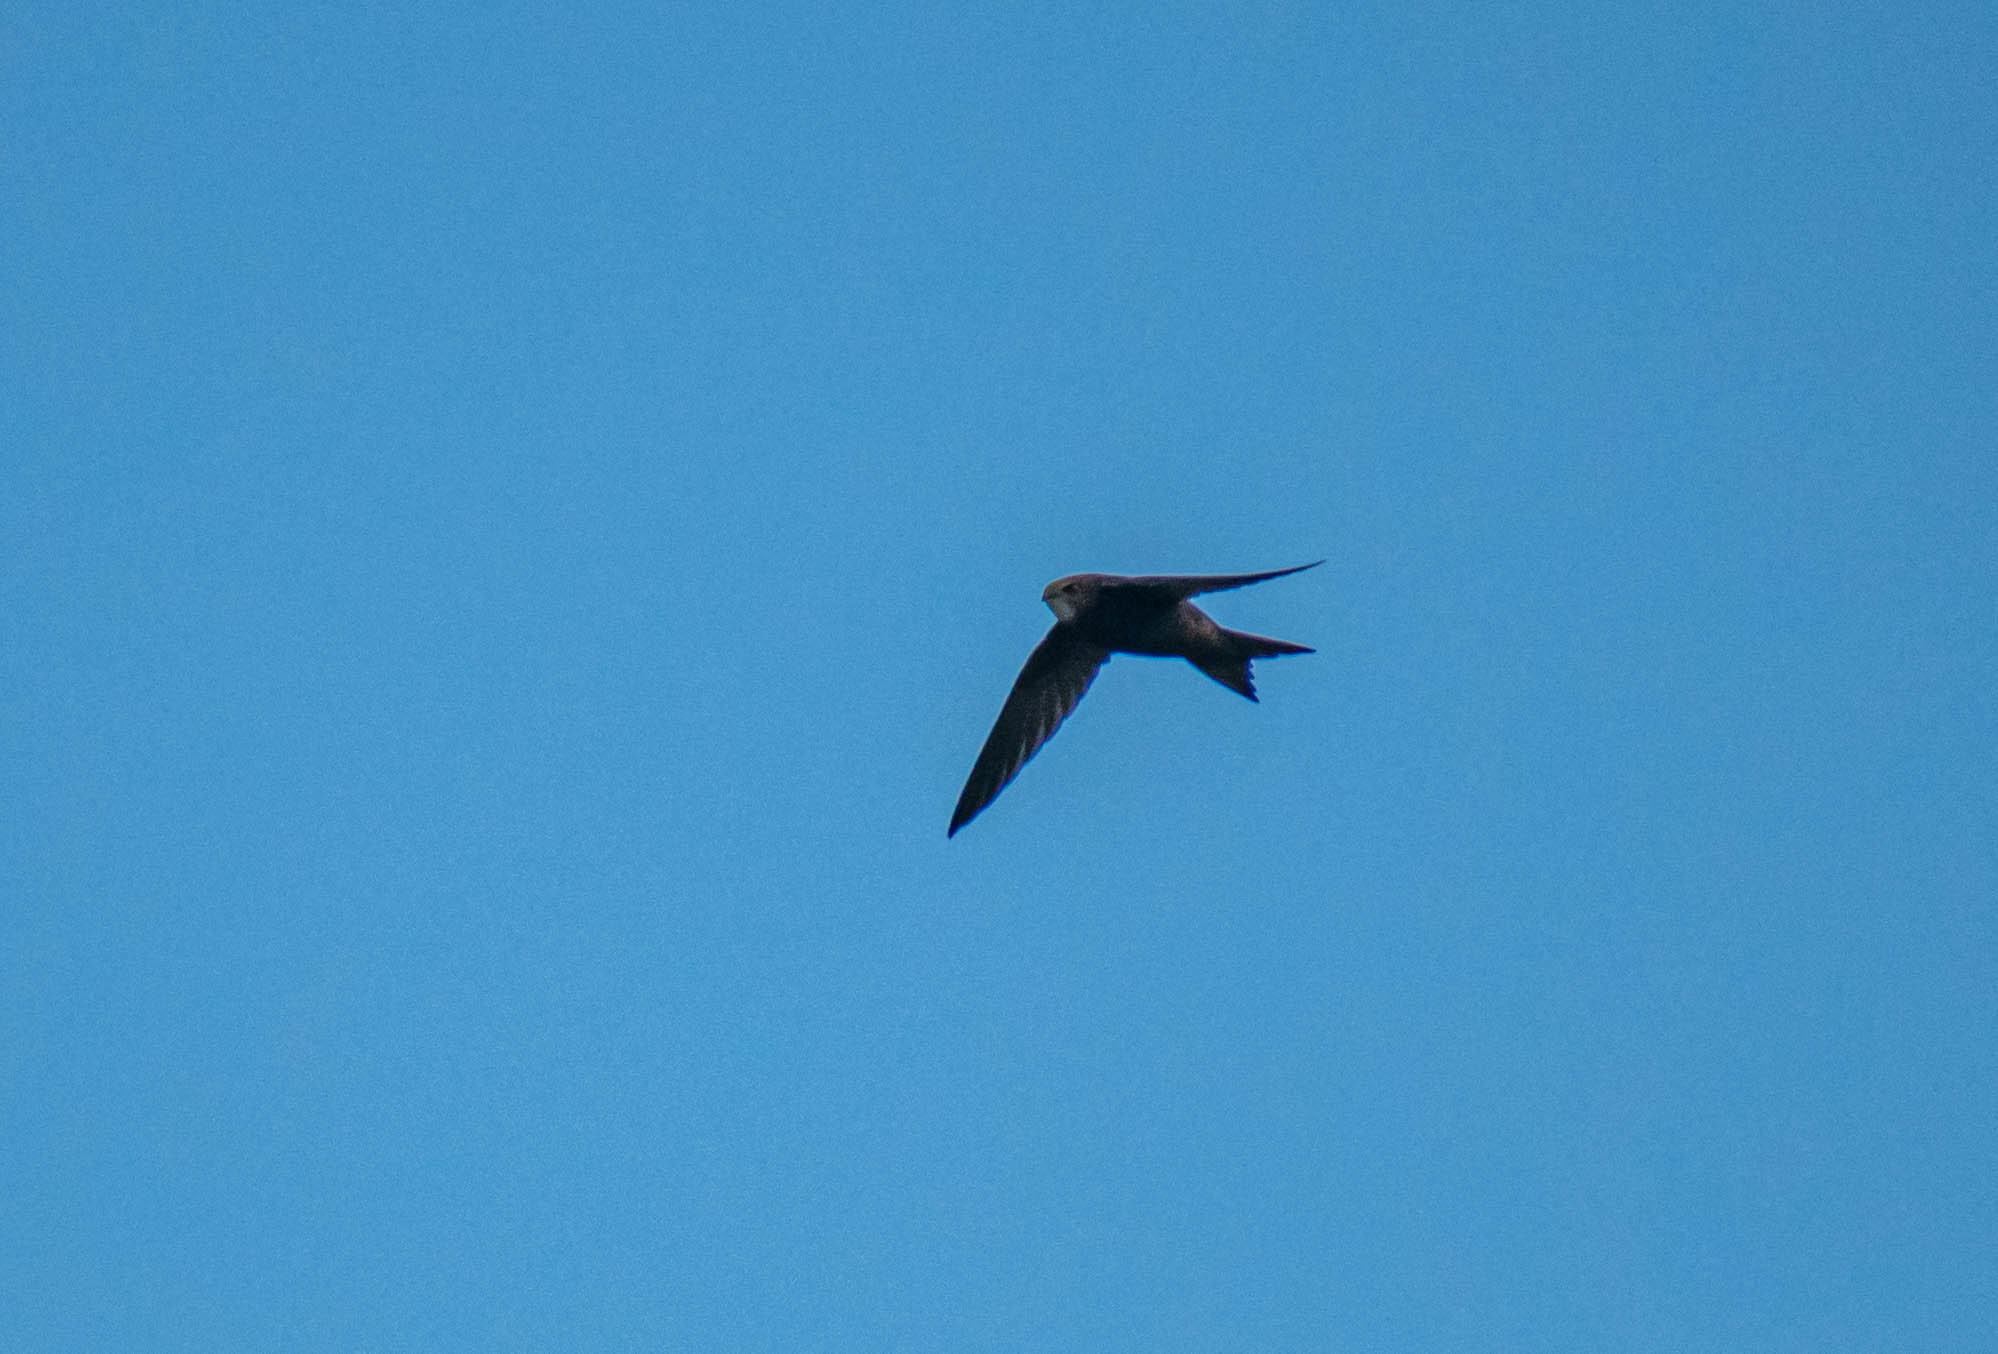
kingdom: Animalia
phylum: Chordata
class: Aves
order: Apodiformes
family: Apodidae
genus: Apus
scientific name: Apus apus
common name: Common swift
